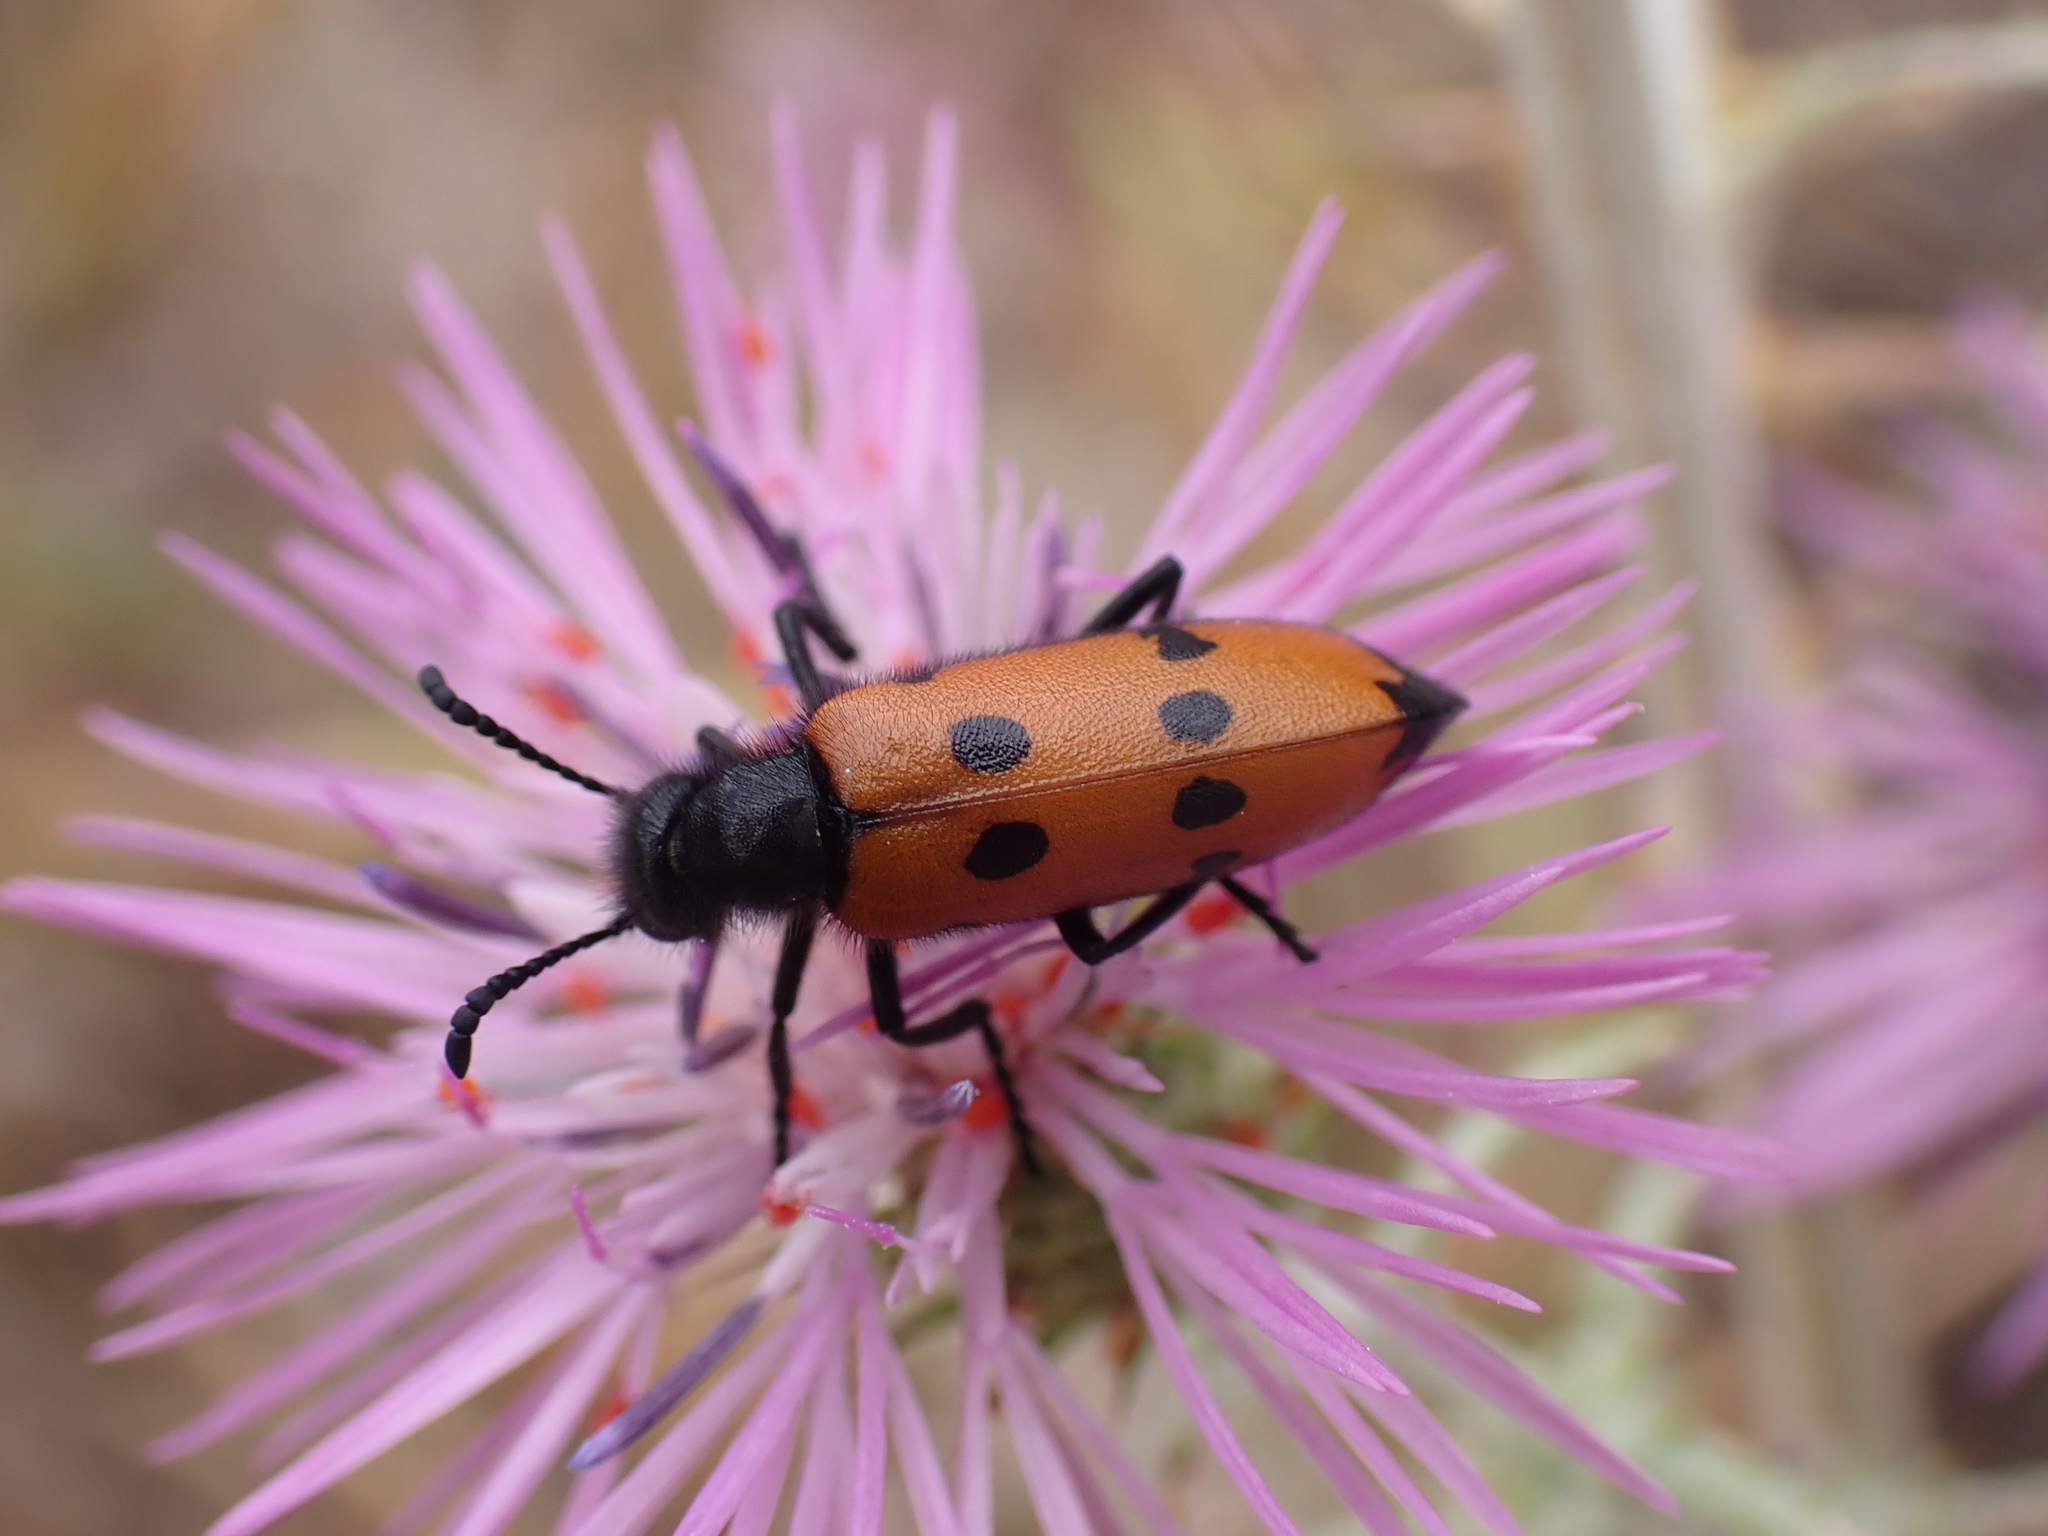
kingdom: Animalia
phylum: Arthropoda
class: Insecta
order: Coleoptera
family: Meloidae
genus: Mylabris
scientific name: Mylabris quadripunctata
